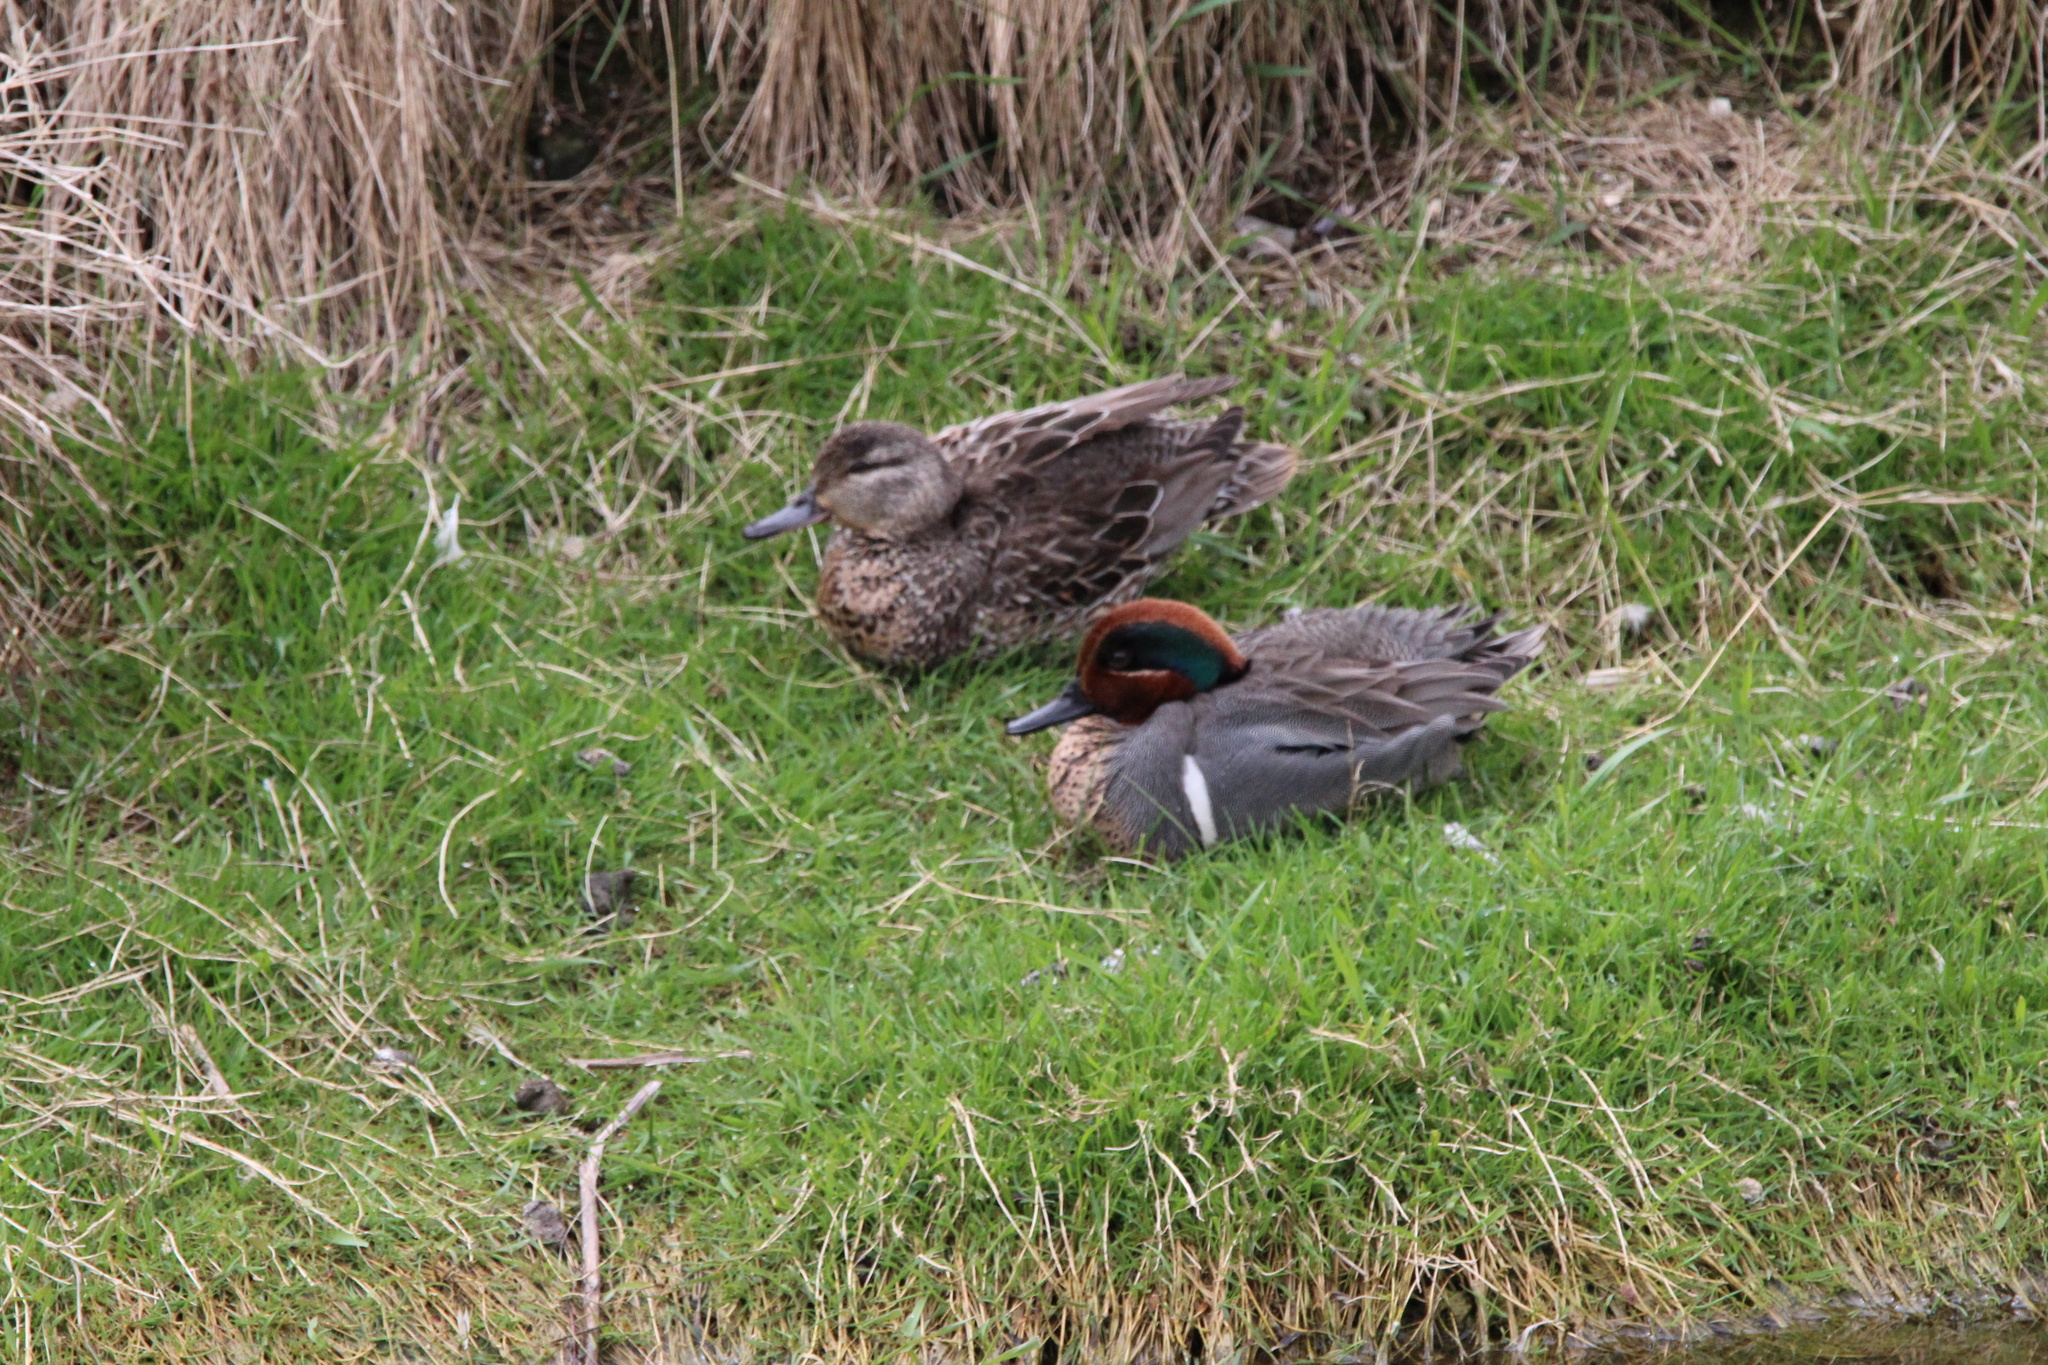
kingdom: Animalia
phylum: Chordata
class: Aves
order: Anseriformes
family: Anatidae
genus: Anas
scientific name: Anas carolinensis
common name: Green-winged teal
